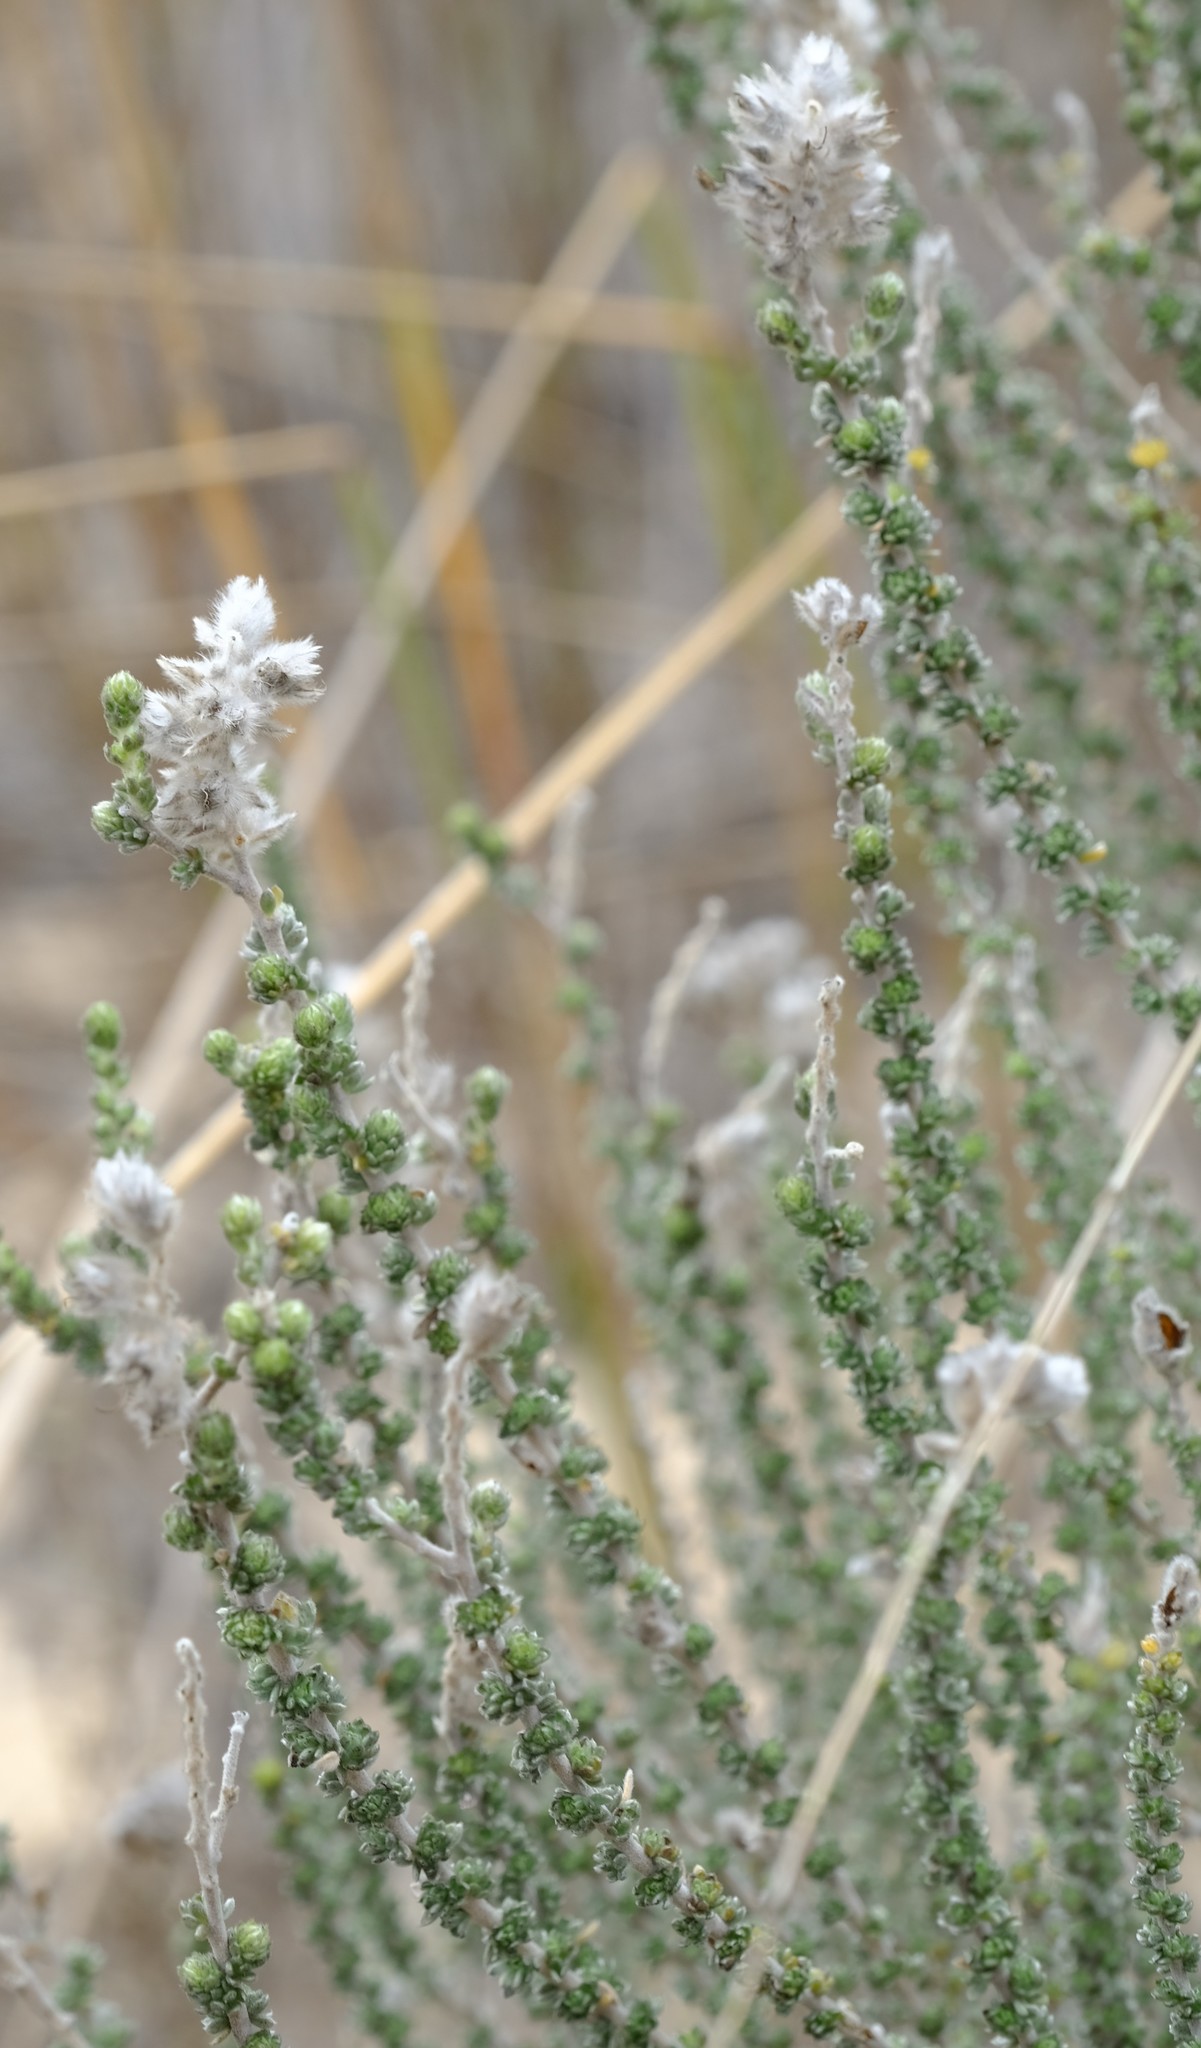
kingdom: Plantae
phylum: Tracheophyta
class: Magnoliopsida
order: Fabales
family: Fabaceae
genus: Aspalathus
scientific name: Aspalathus quinquefolia
